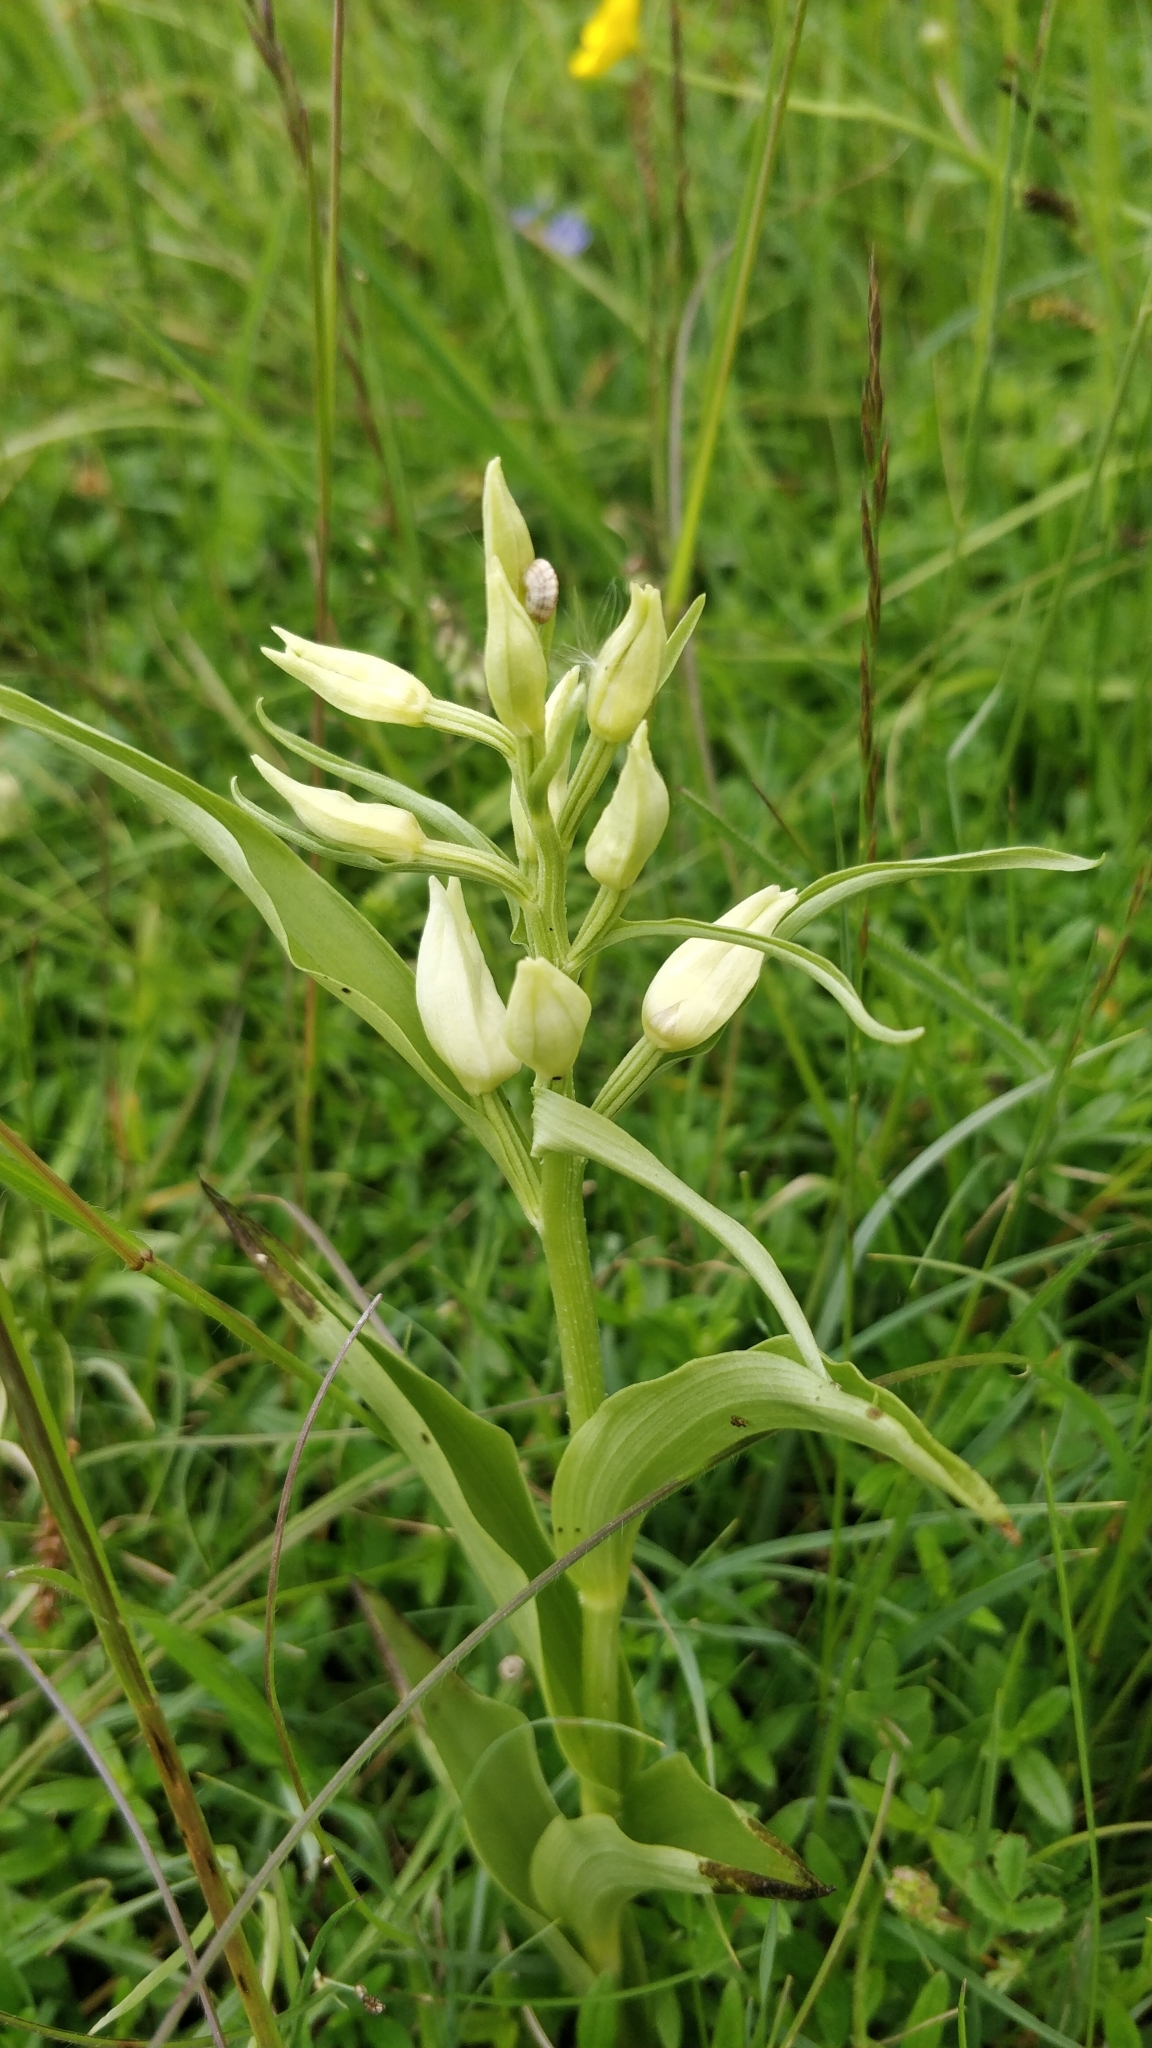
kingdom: Plantae
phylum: Tracheophyta
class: Liliopsida
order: Asparagales
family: Orchidaceae
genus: Cephalanthera
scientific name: Cephalanthera damasonium
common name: White helleborine
